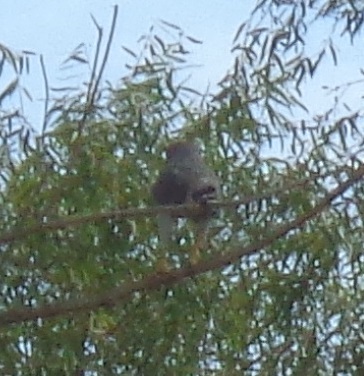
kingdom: Animalia
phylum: Chordata
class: Aves
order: Accipitriformes
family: Accipitridae
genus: Buteo
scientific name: Buteo nitidus
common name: Grey-lined hawk
